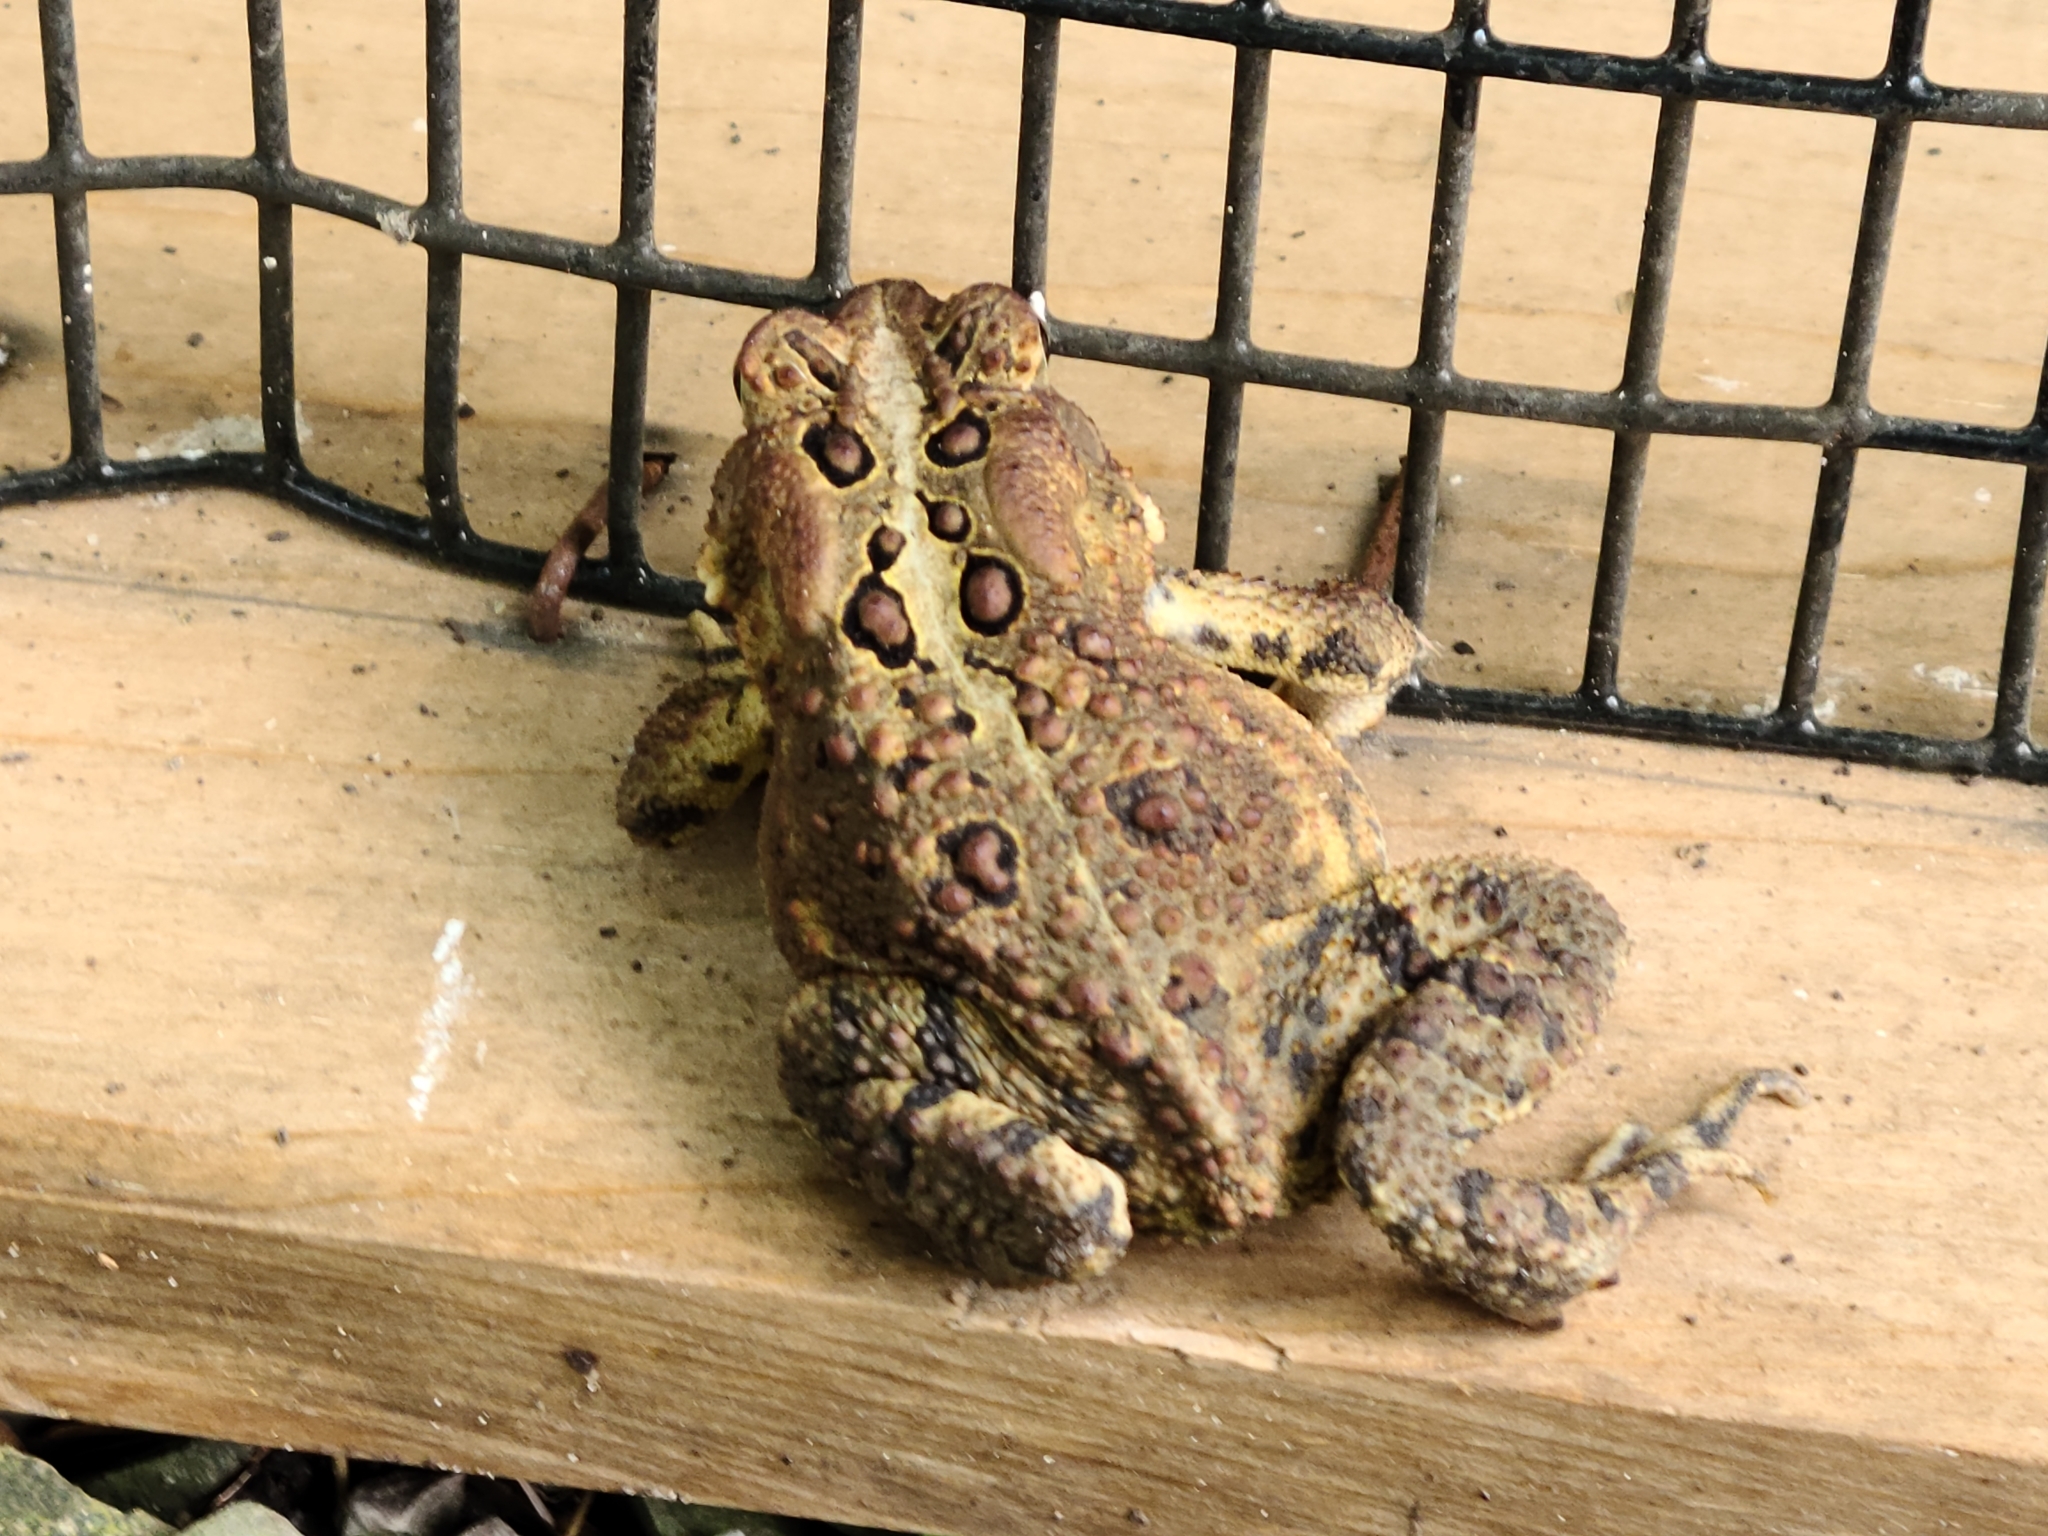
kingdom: Animalia
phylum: Chordata
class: Amphibia
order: Anura
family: Bufonidae
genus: Anaxyrus
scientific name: Anaxyrus americanus
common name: American toad
